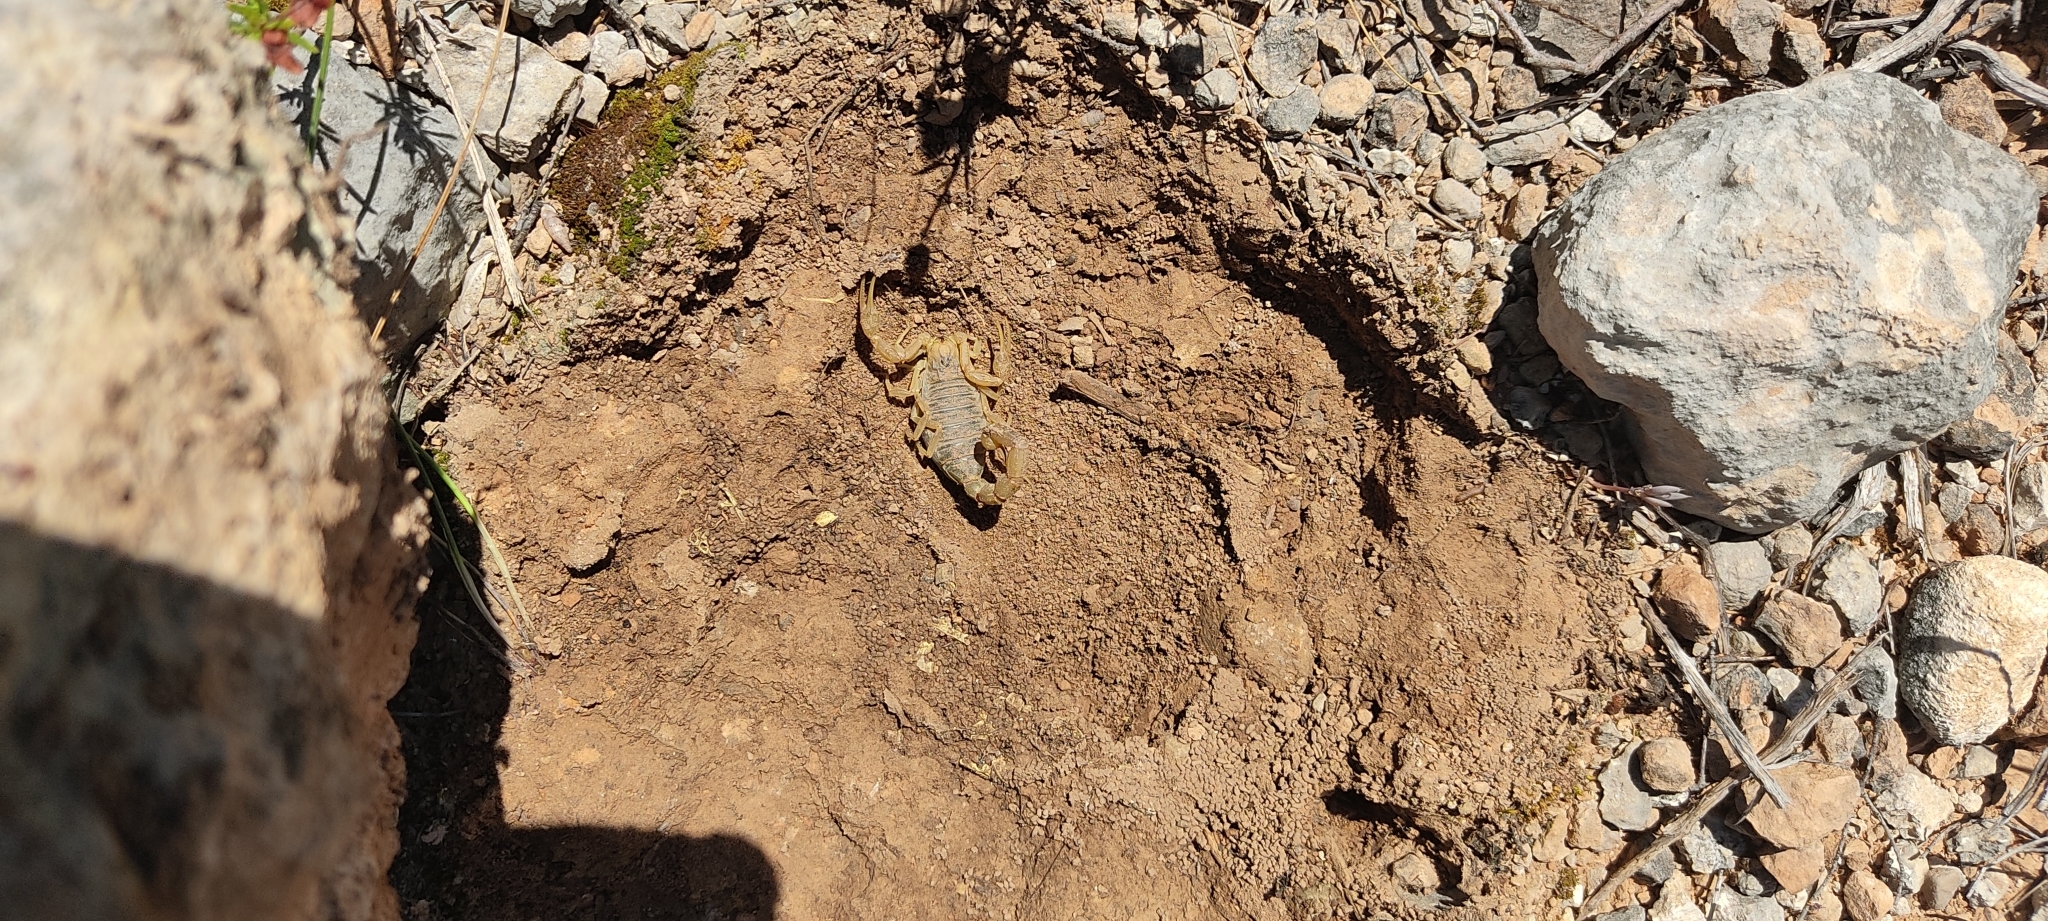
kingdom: Animalia
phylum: Arthropoda
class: Arachnida
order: Scorpiones
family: Buthidae
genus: Buthus
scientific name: Buthus occitanus
